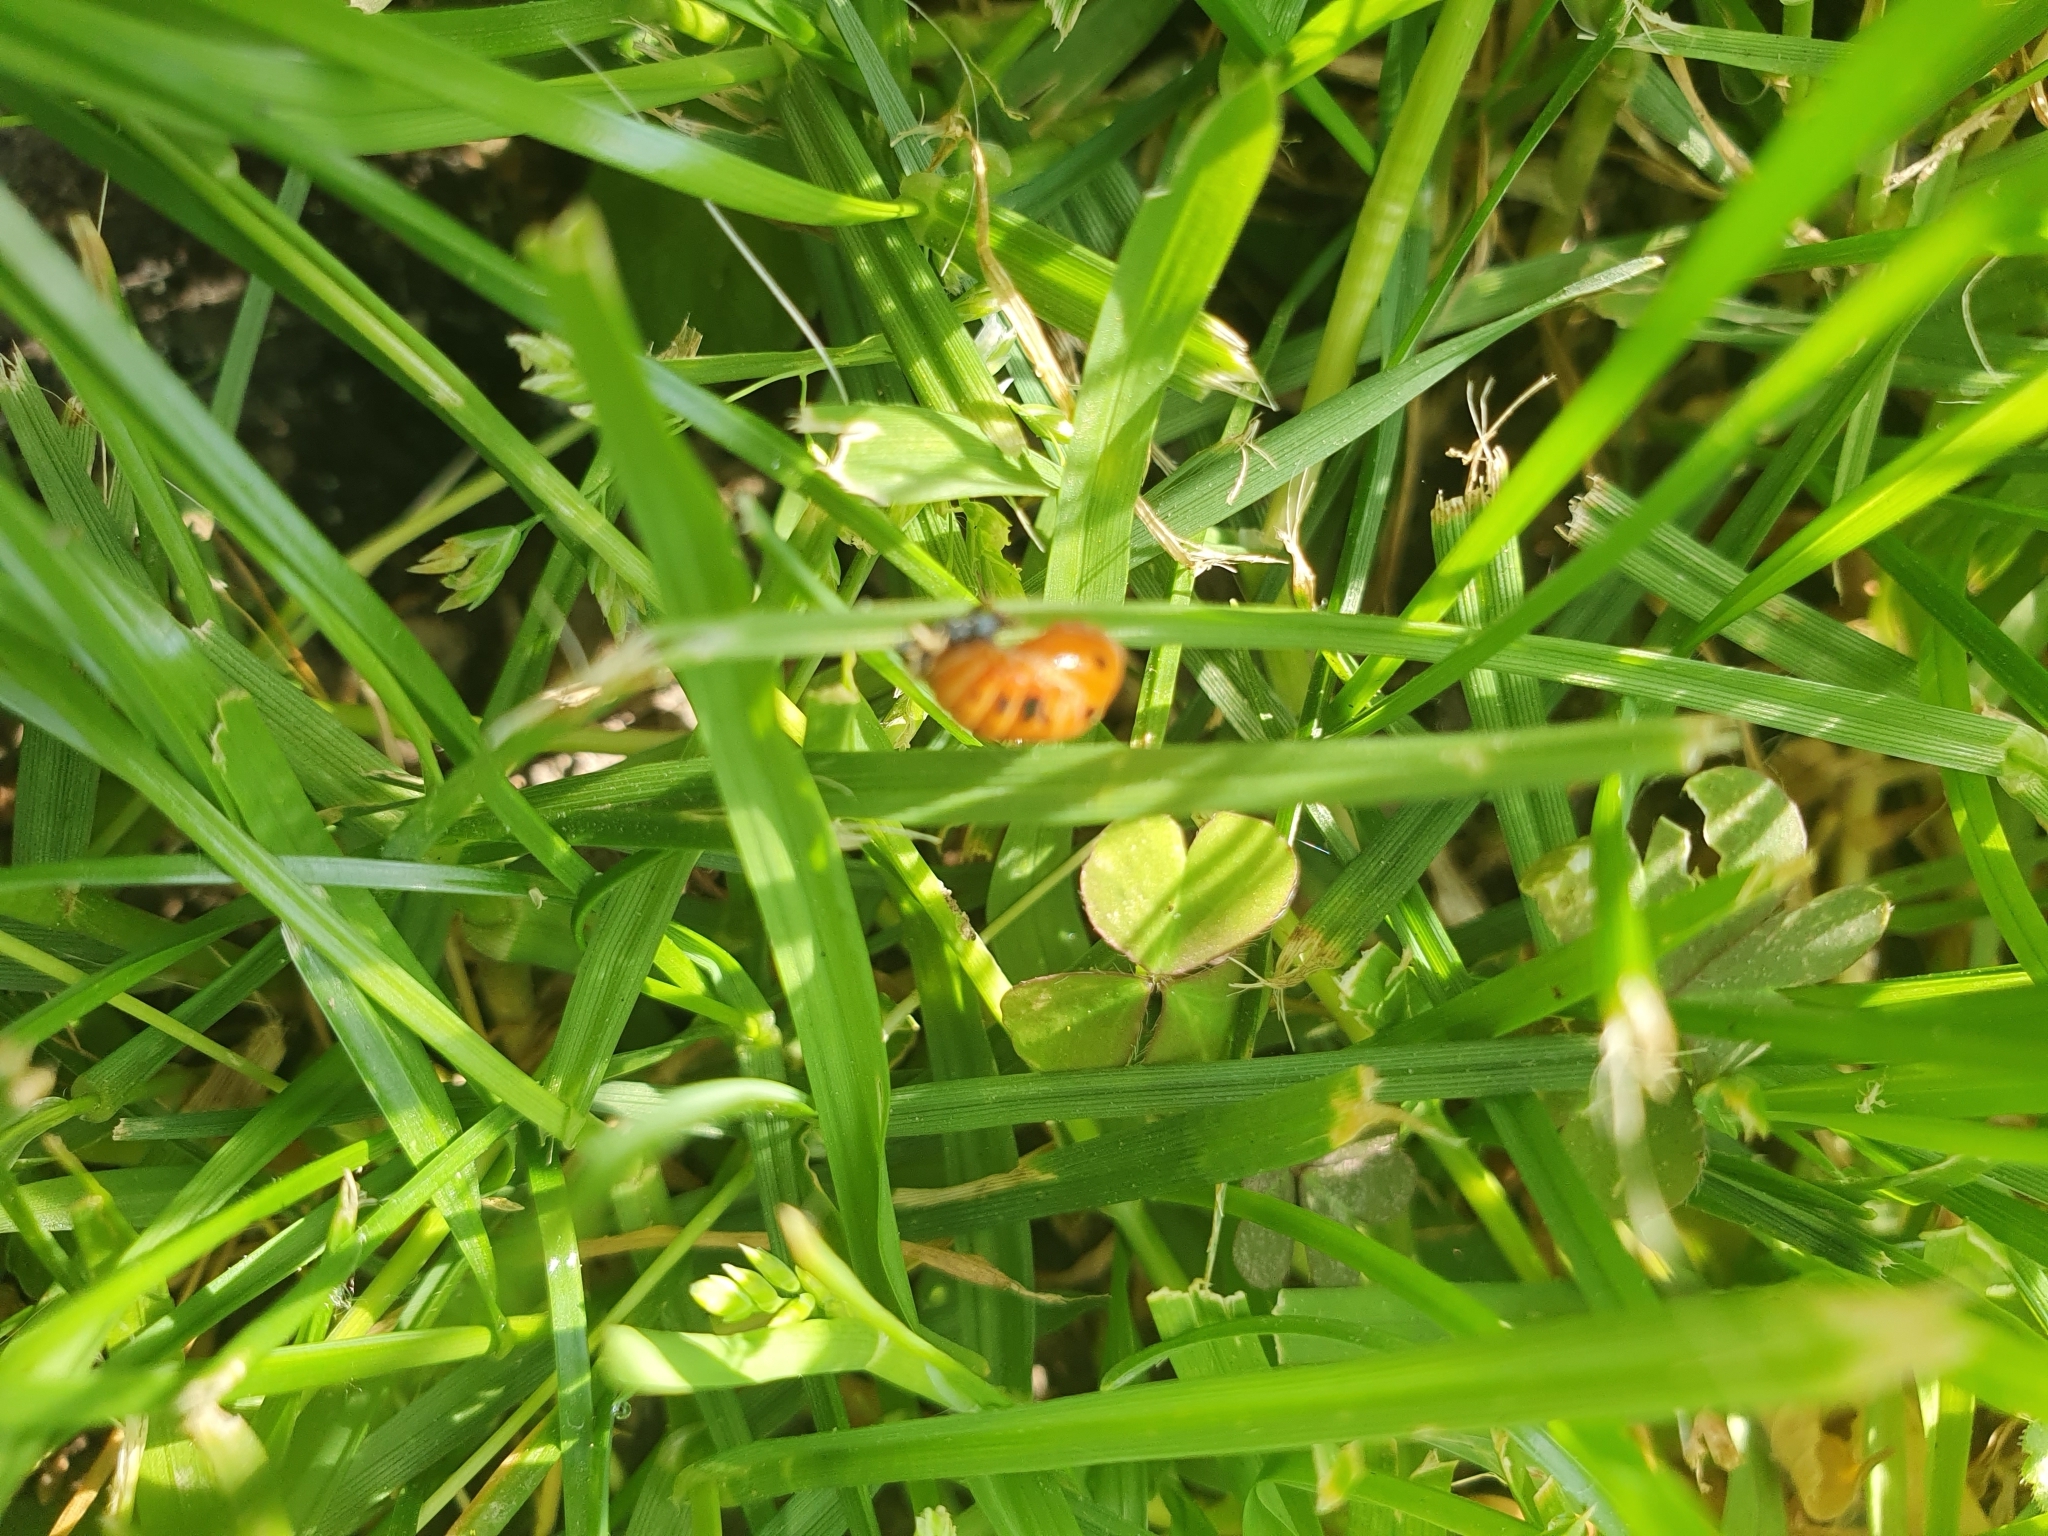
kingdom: Animalia
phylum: Arthropoda
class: Insecta
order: Coleoptera
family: Coccinellidae
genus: Harmonia
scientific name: Harmonia axyridis
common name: Harlequin ladybird
